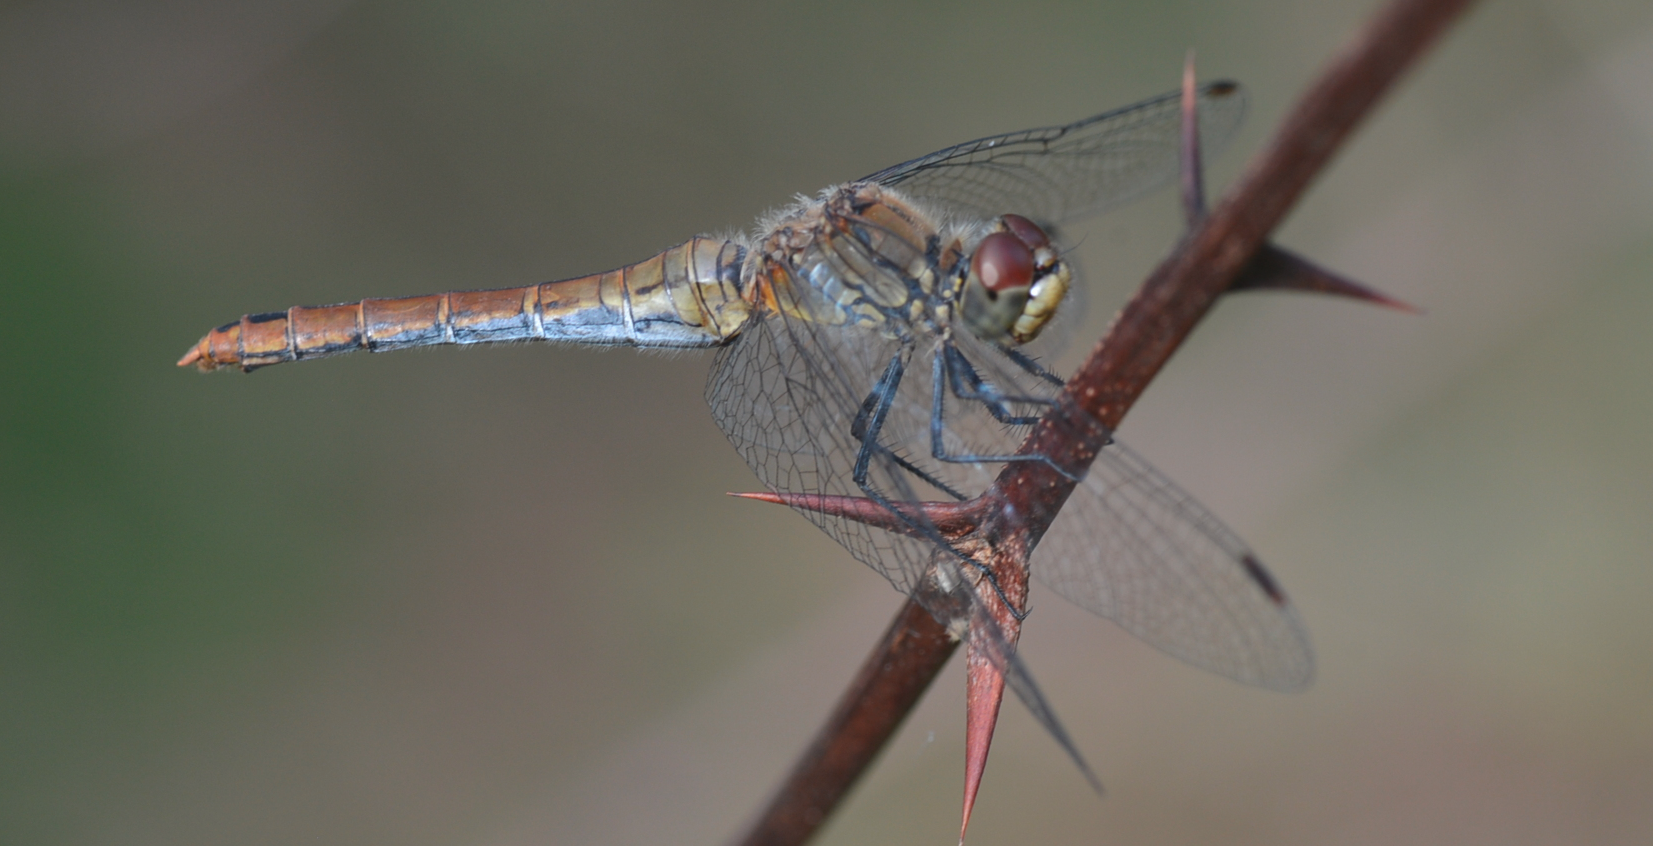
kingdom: Animalia
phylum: Arthropoda
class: Insecta
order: Odonata
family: Libellulidae
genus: Sympetrum
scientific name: Sympetrum sanguineum
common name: Ruddy darter
